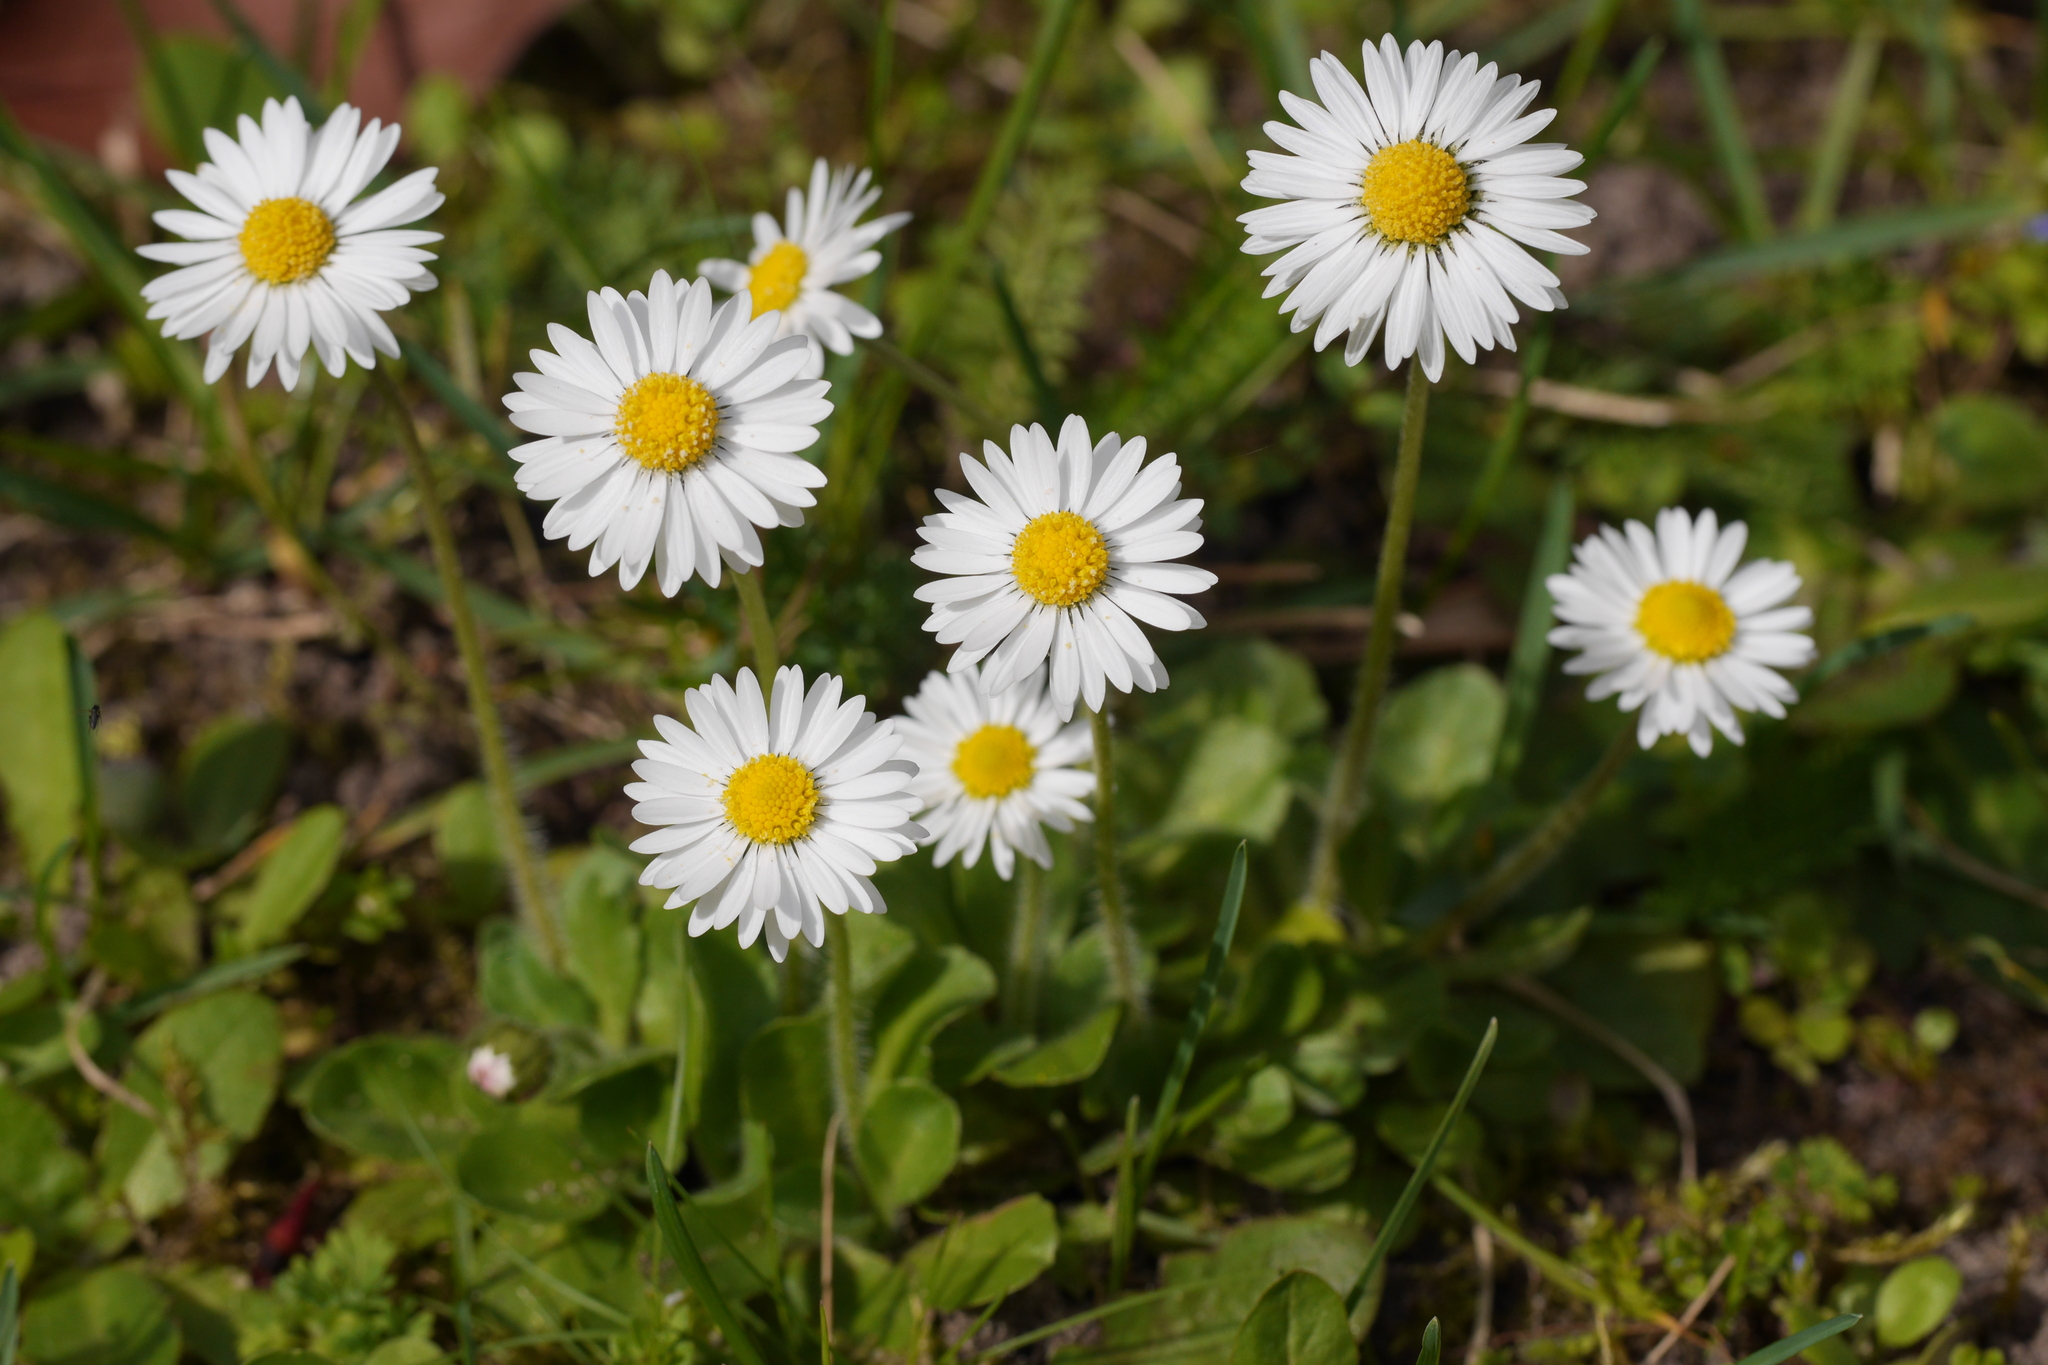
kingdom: Plantae
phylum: Tracheophyta
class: Magnoliopsida
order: Asterales
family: Asteraceae
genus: Bellis
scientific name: Bellis perennis
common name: Lawndaisy
